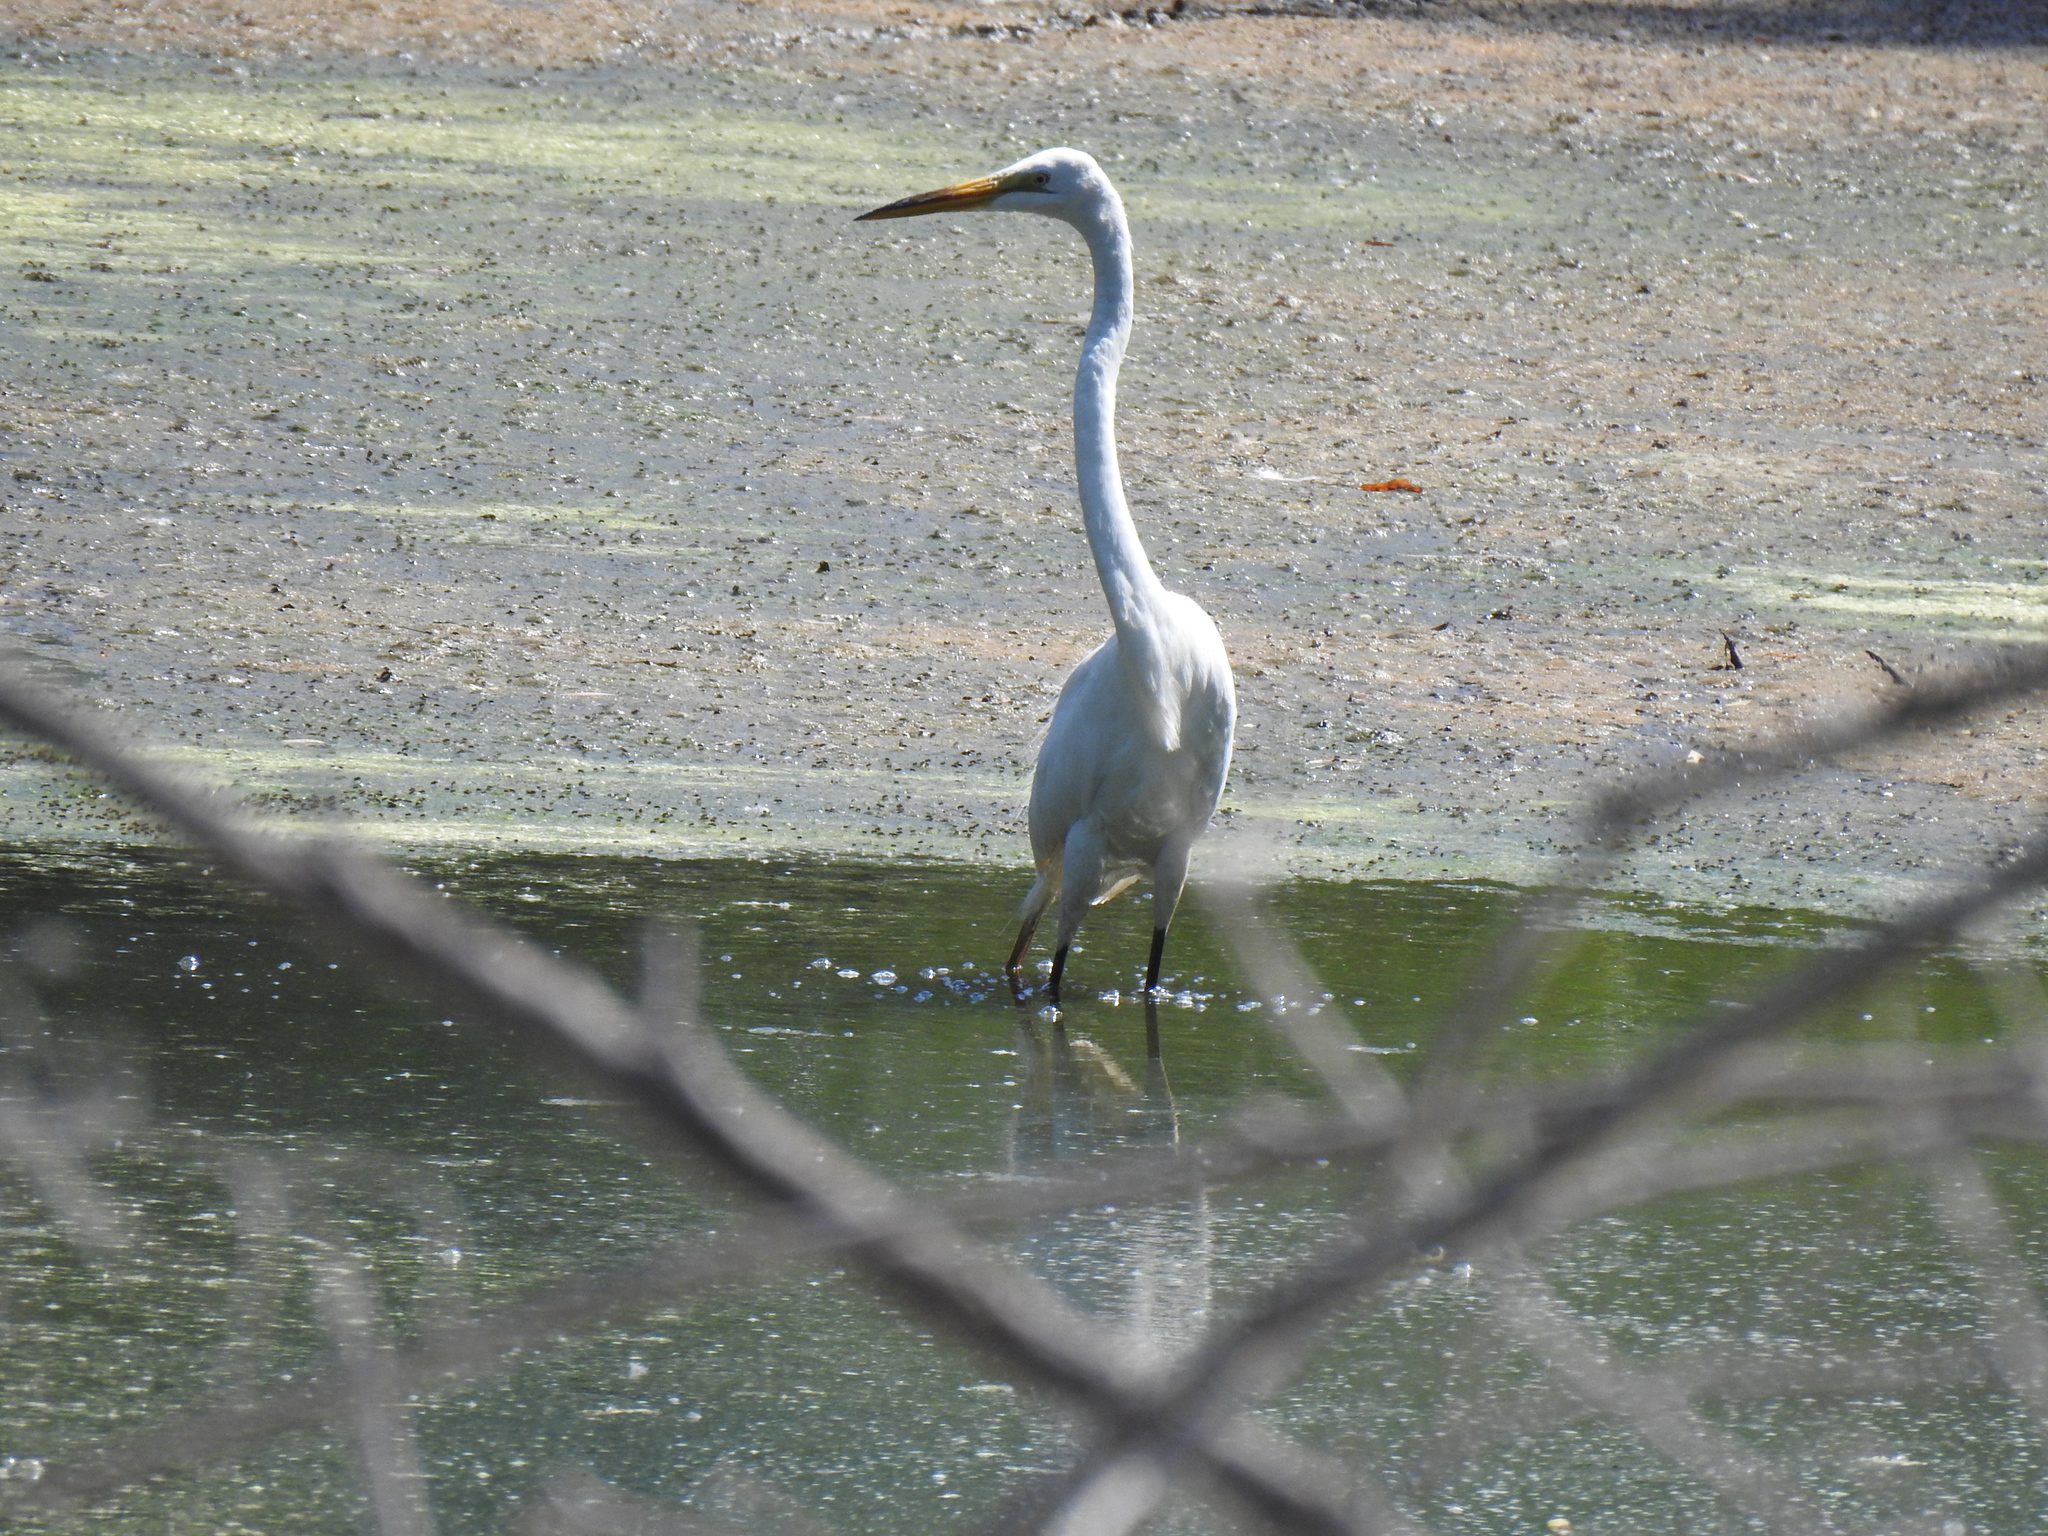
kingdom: Animalia
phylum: Chordata
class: Aves
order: Pelecaniformes
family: Ardeidae
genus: Ardea
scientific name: Ardea alba
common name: Great egret
